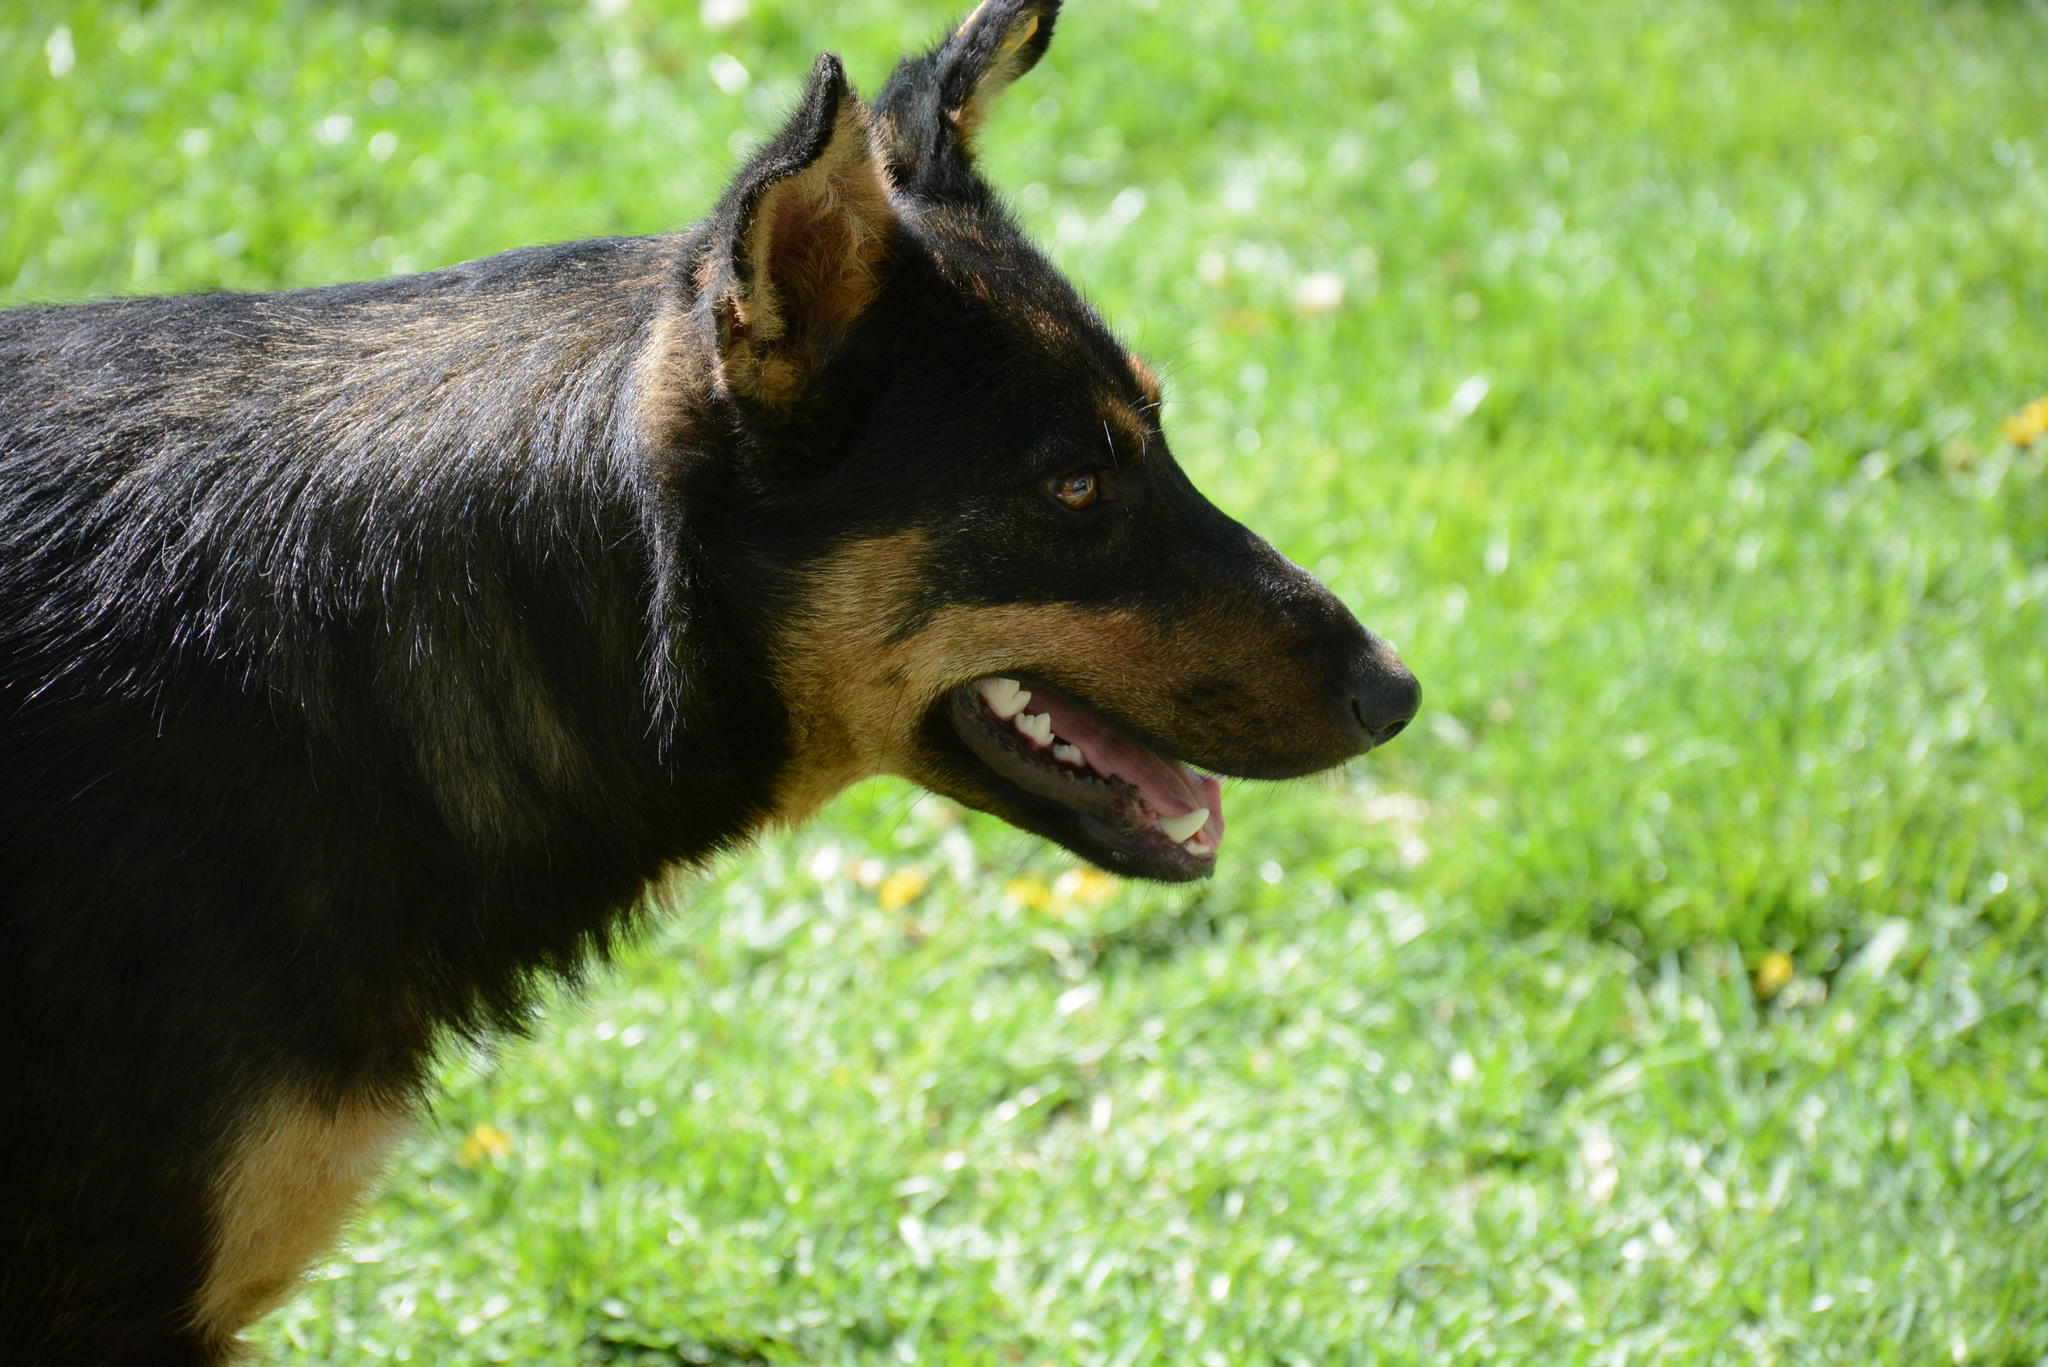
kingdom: Animalia
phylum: Chordata
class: Mammalia
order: Carnivora
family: Canidae
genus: Canis
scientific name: Canis lupus
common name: Gray wolf
